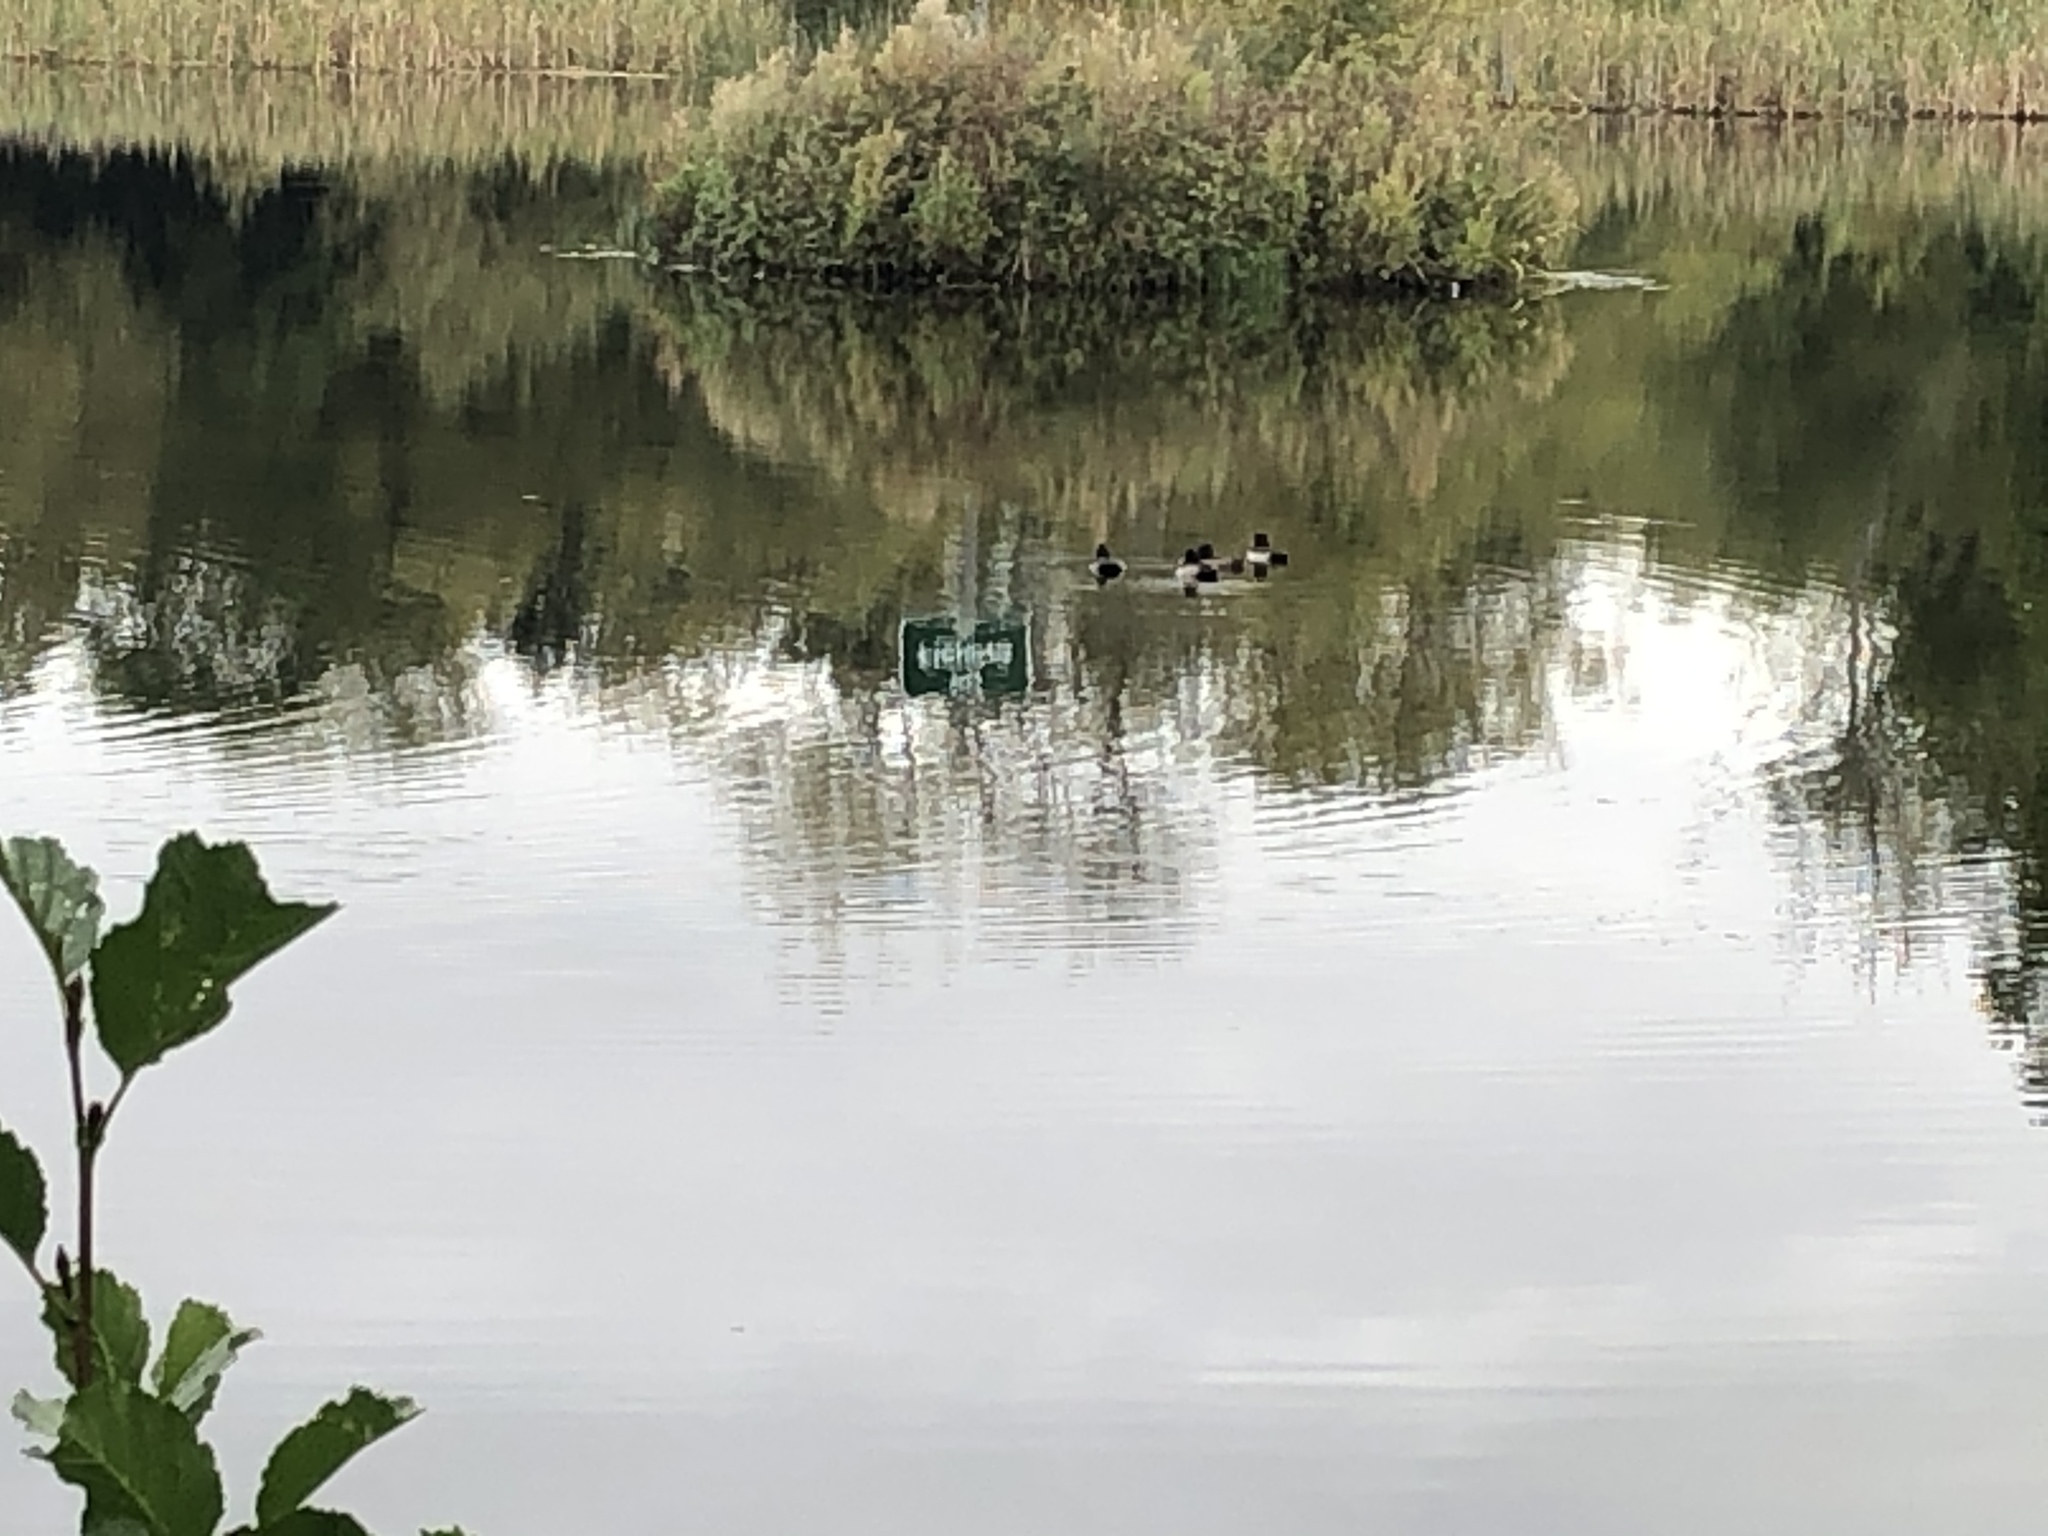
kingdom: Animalia
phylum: Chordata
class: Aves
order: Anseriformes
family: Anatidae
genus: Aythya
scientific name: Aythya fuligula
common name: Tufted duck
